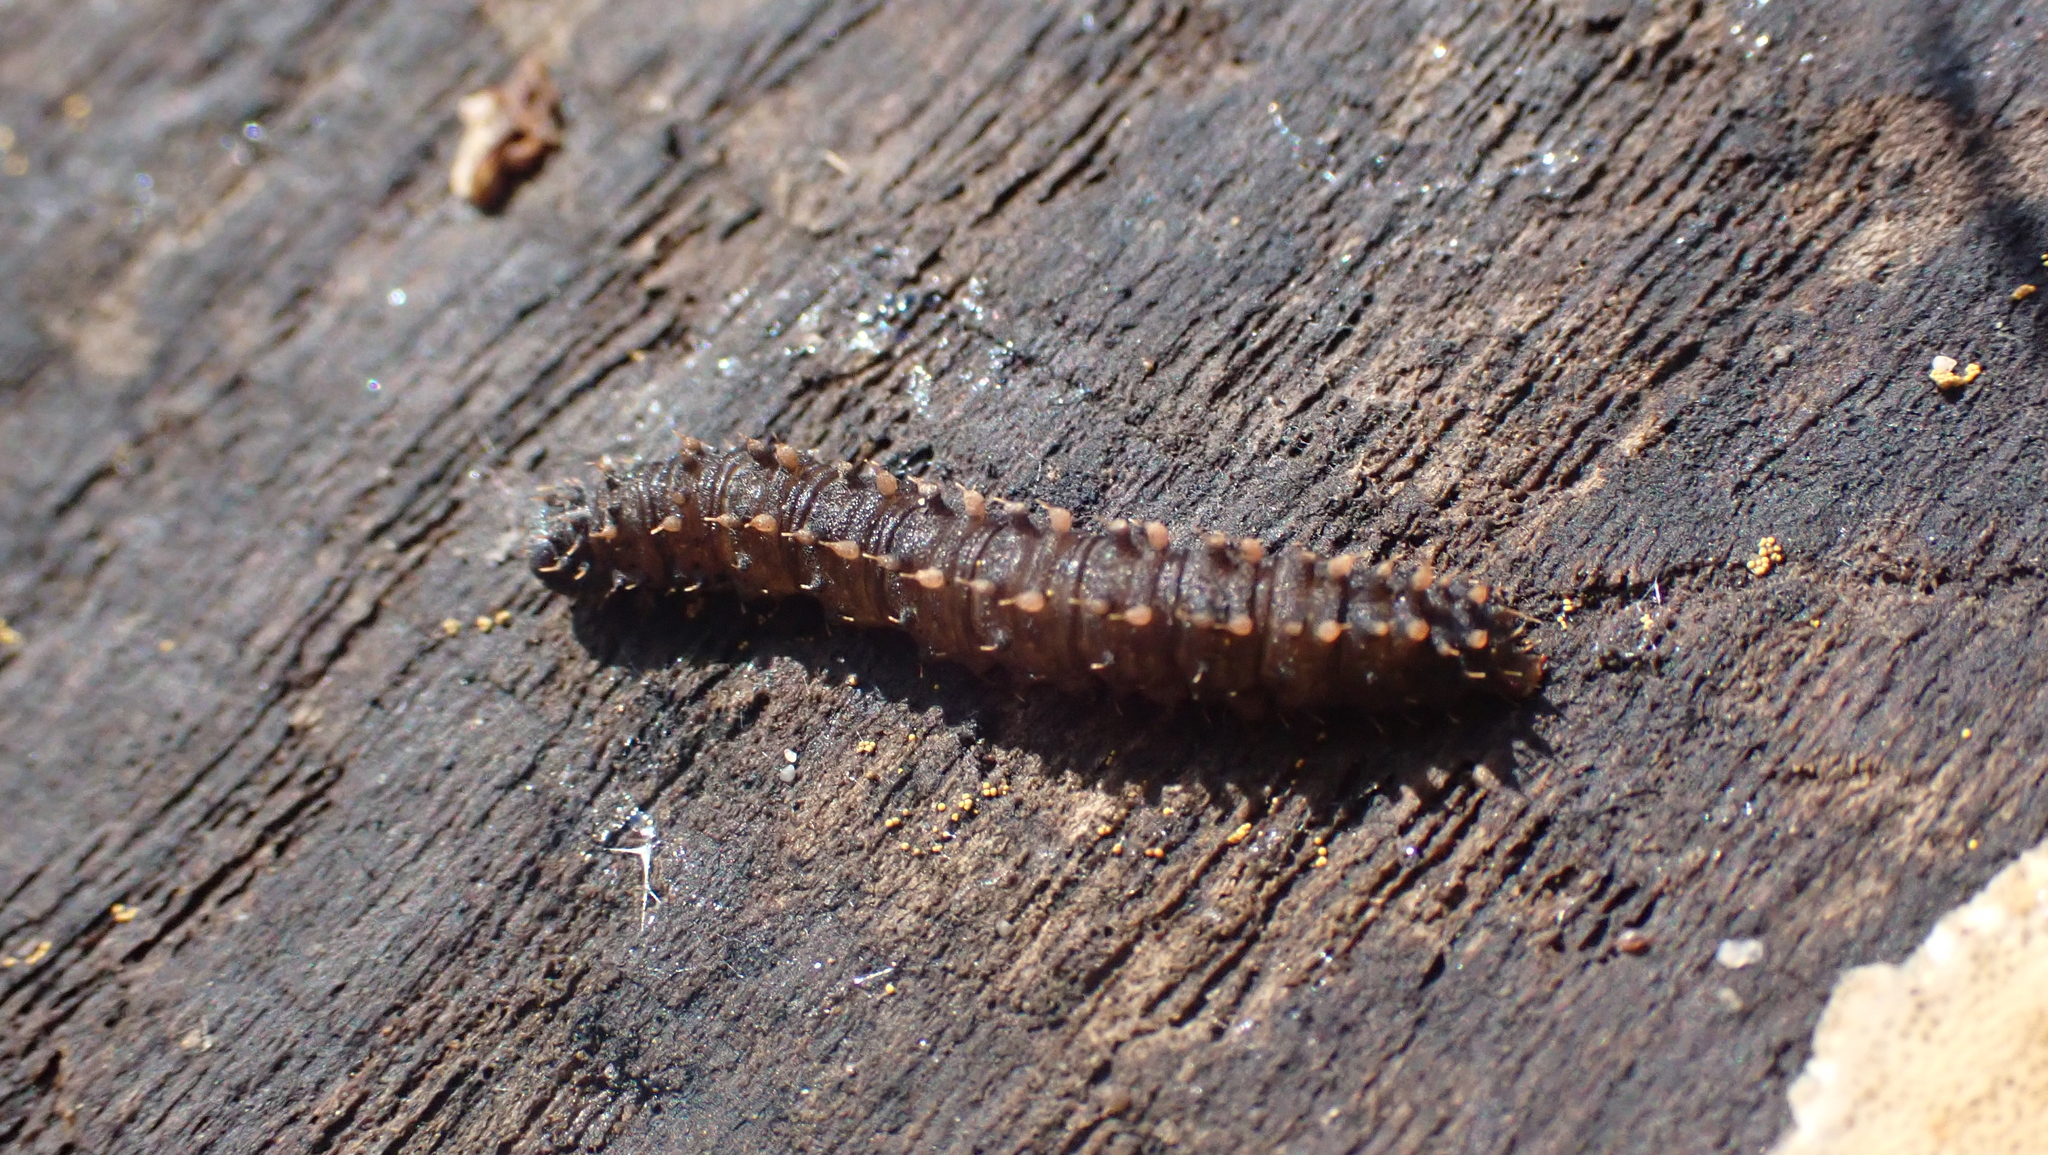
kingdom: Animalia
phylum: Arthropoda
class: Insecta
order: Lepidoptera
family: Erebidae
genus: Idia
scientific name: Idia lubricalis
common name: Twin-striped tabby
